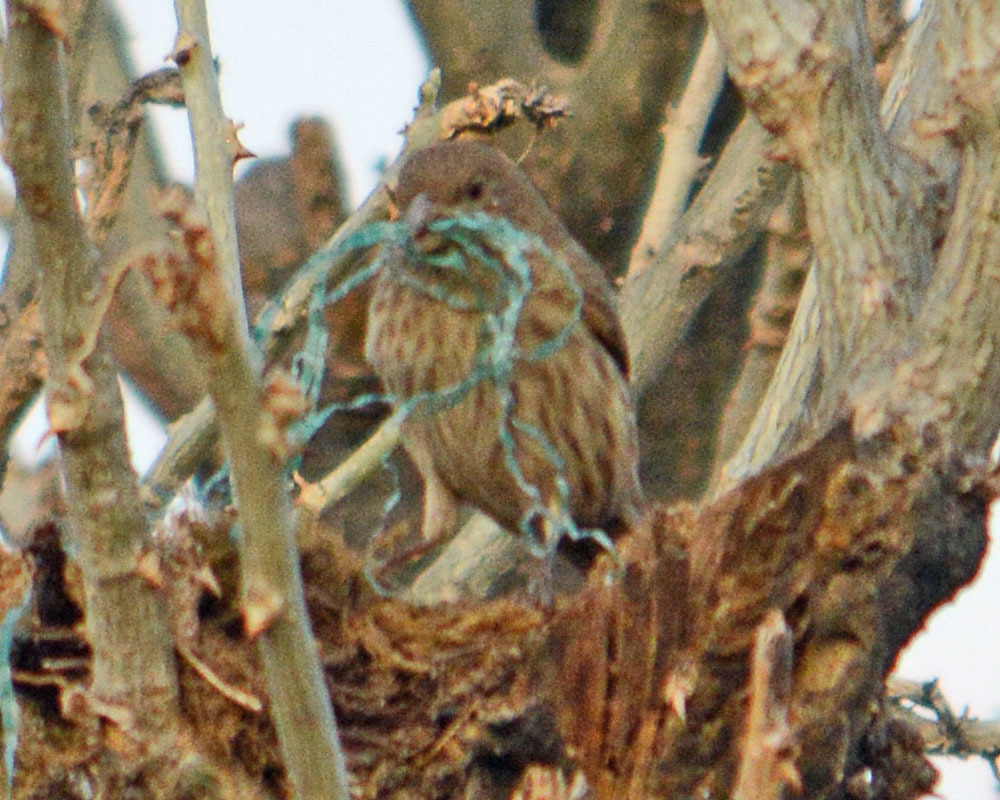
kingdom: Animalia
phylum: Chordata
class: Aves
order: Passeriformes
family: Fringillidae
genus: Haemorhous
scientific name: Haemorhous mexicanus
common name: House finch
